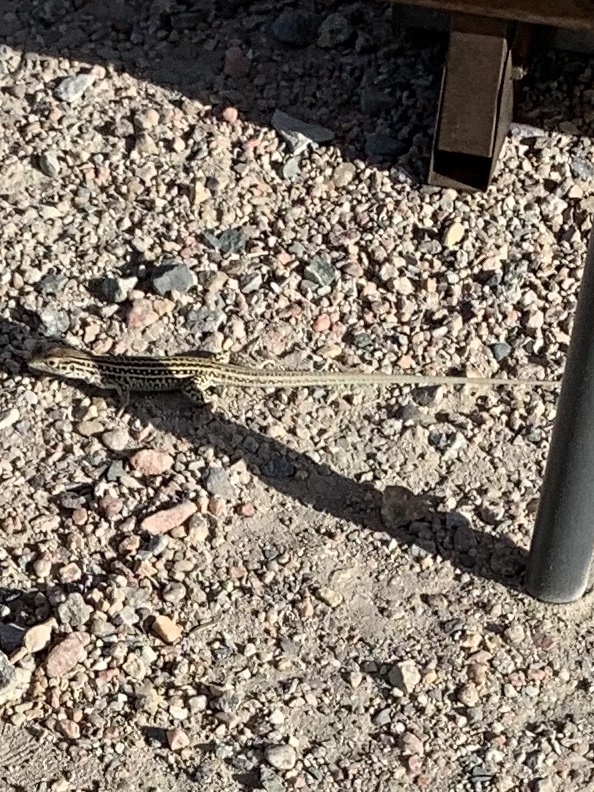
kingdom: Animalia
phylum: Chordata
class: Squamata
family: Teiidae
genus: Aspidoscelis
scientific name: Aspidoscelis neotesselatus
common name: Colorado checkered whiptail
